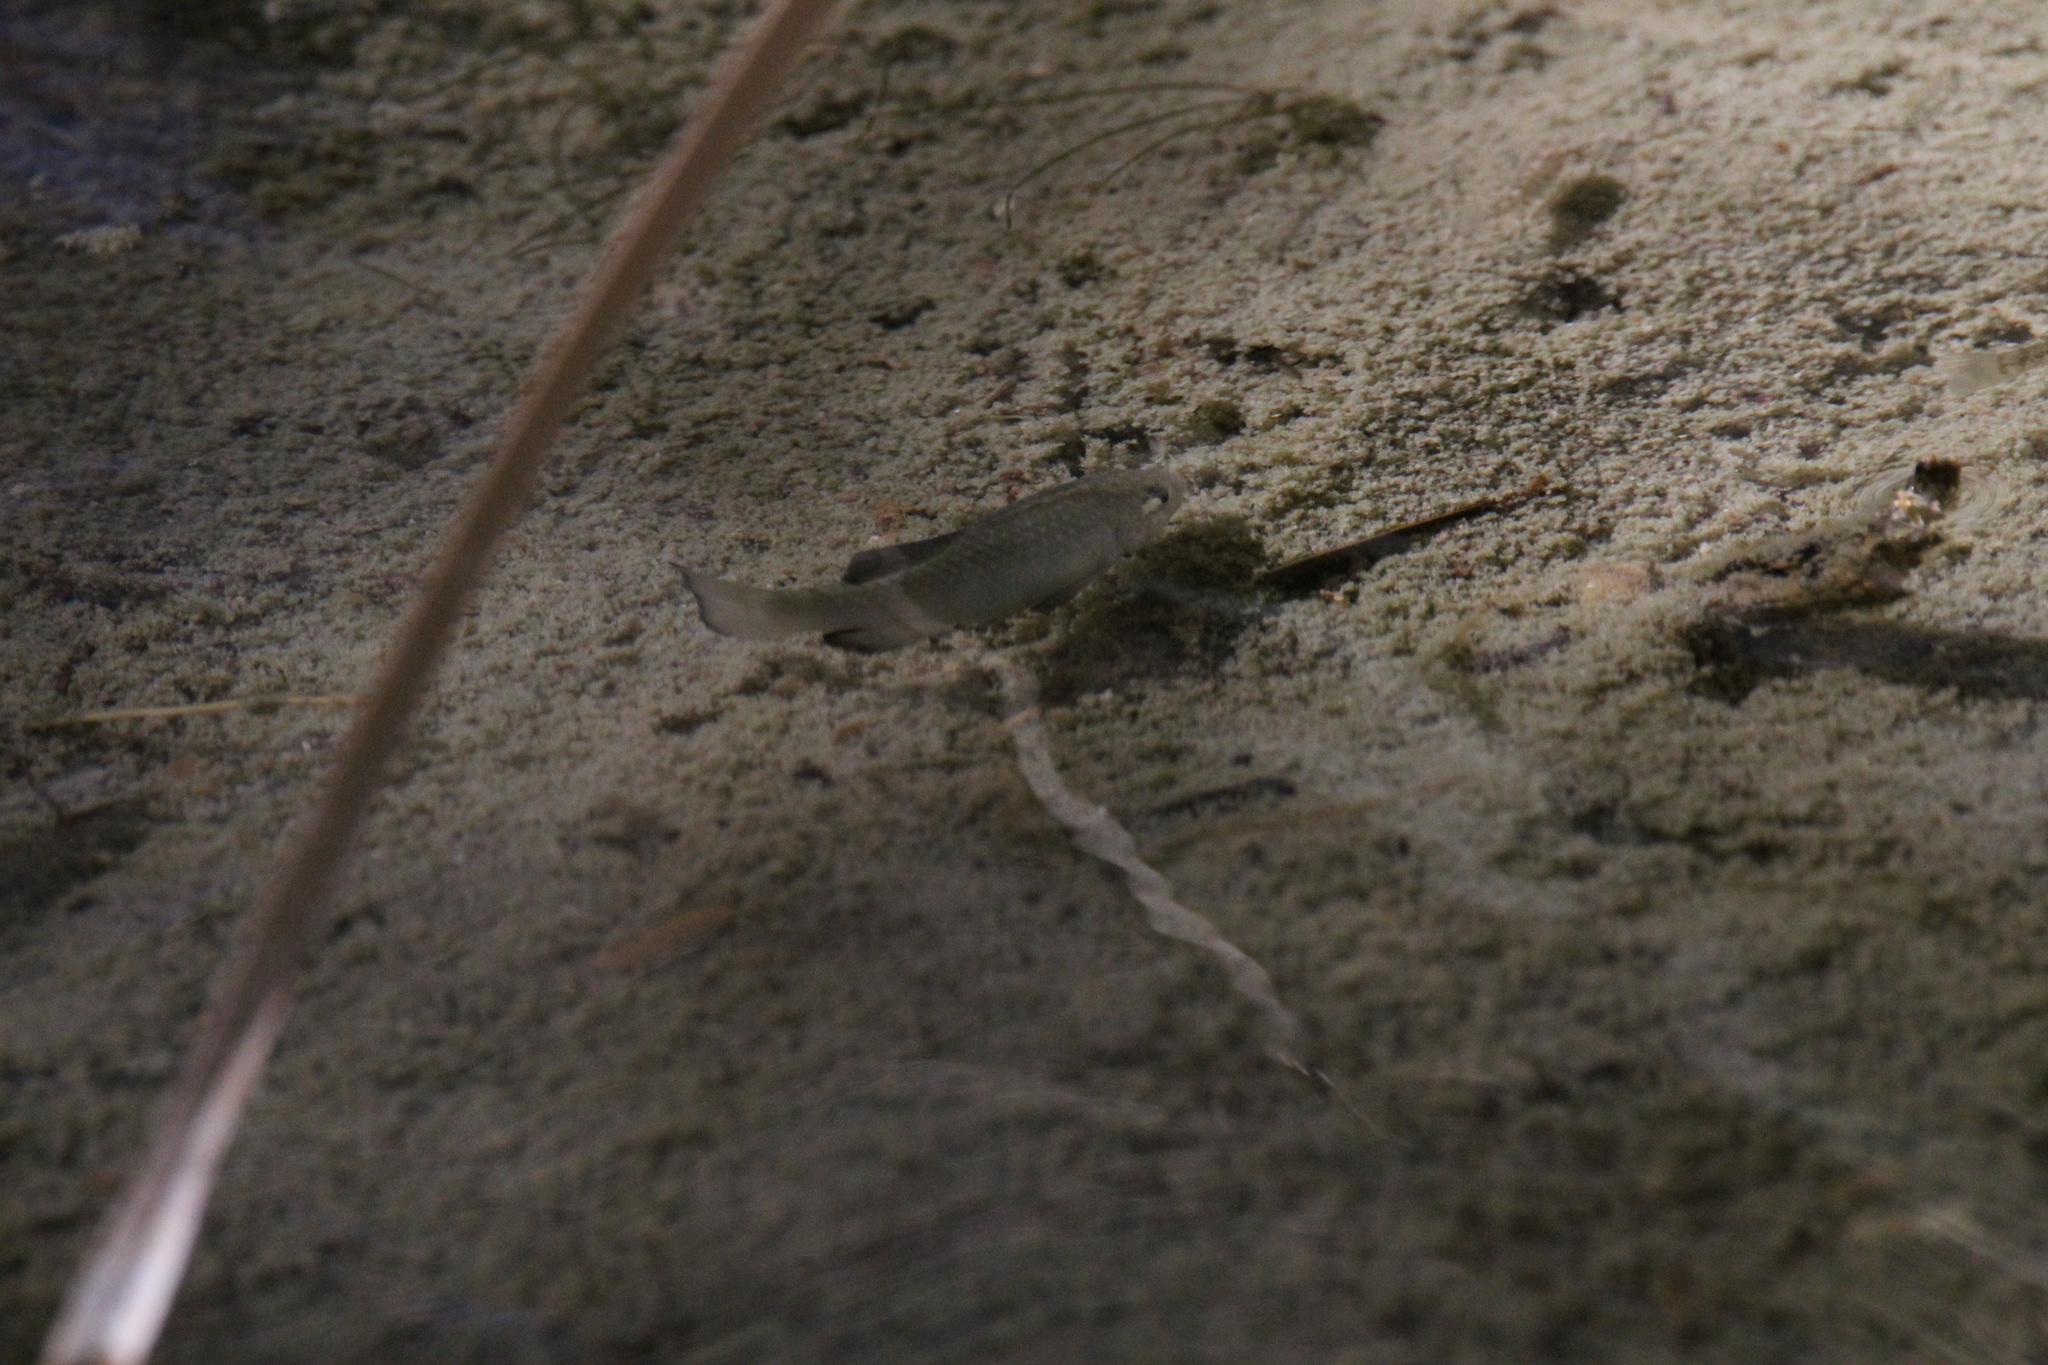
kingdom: Animalia
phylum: Chordata
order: Cyprinodontiformes
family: Cyprinodontidae
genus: Cyprinodon
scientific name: Cyprinodon eremus
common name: Sonoyta pupfish
